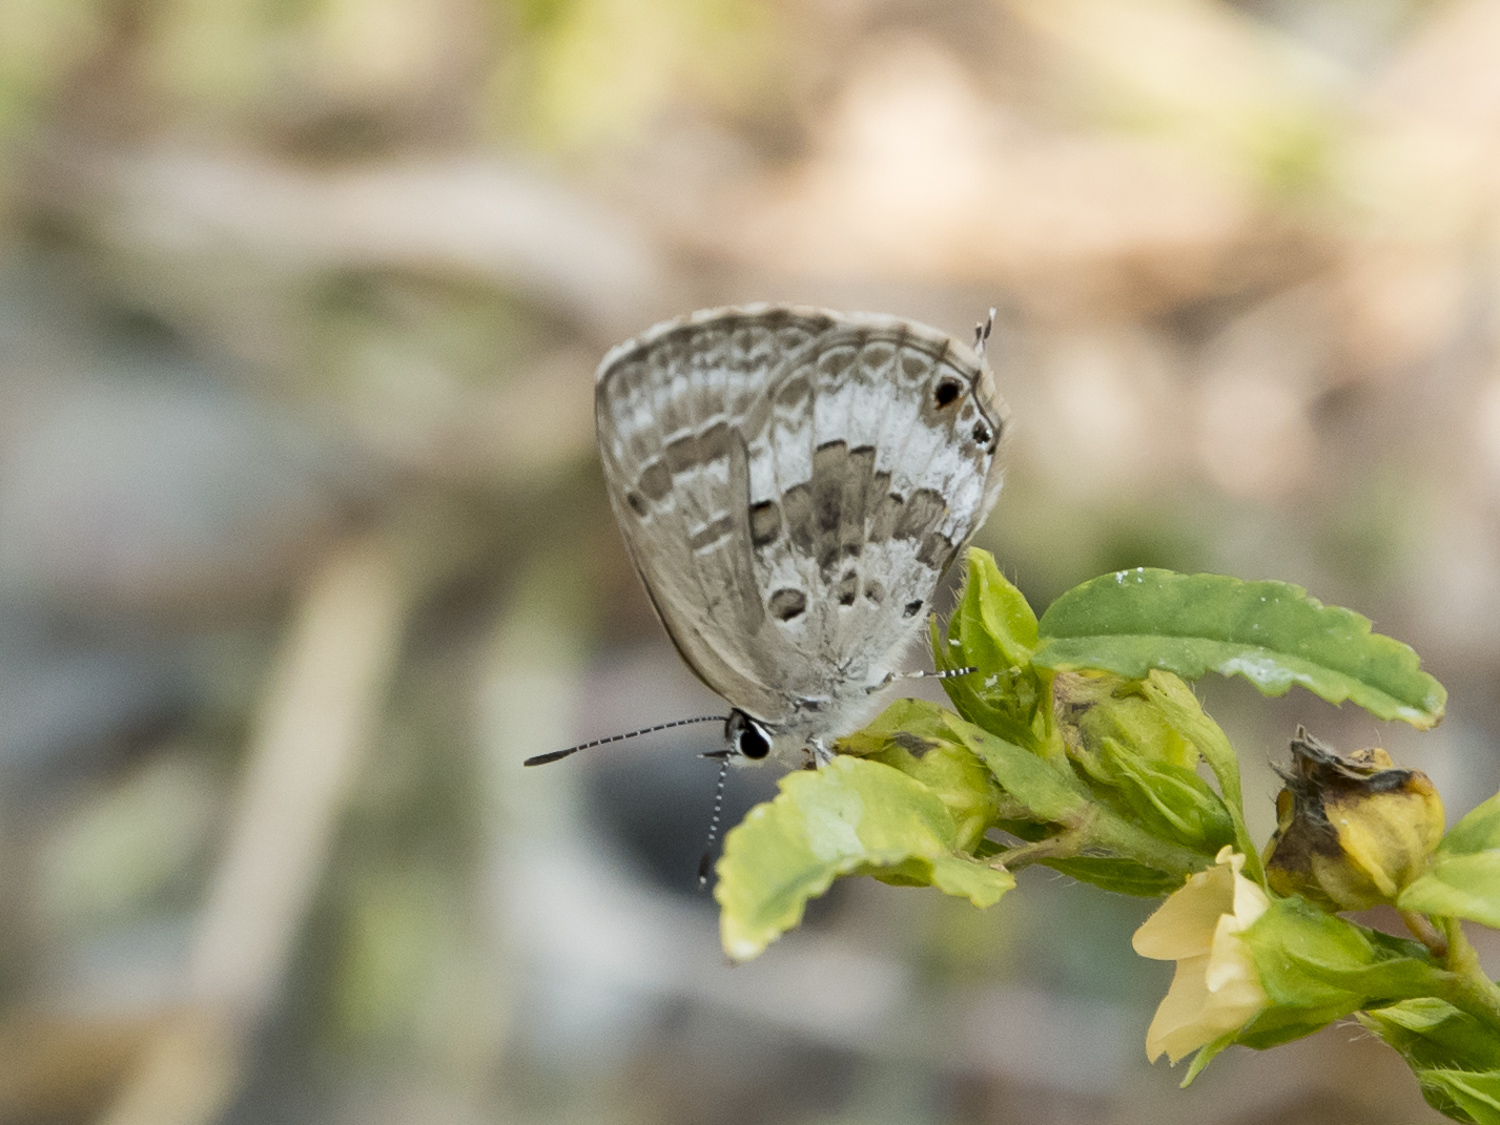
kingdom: Animalia
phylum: Arthropoda
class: Insecta
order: Lepidoptera
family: Lycaenidae
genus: Luthrodes
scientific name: Luthrodes pandava
